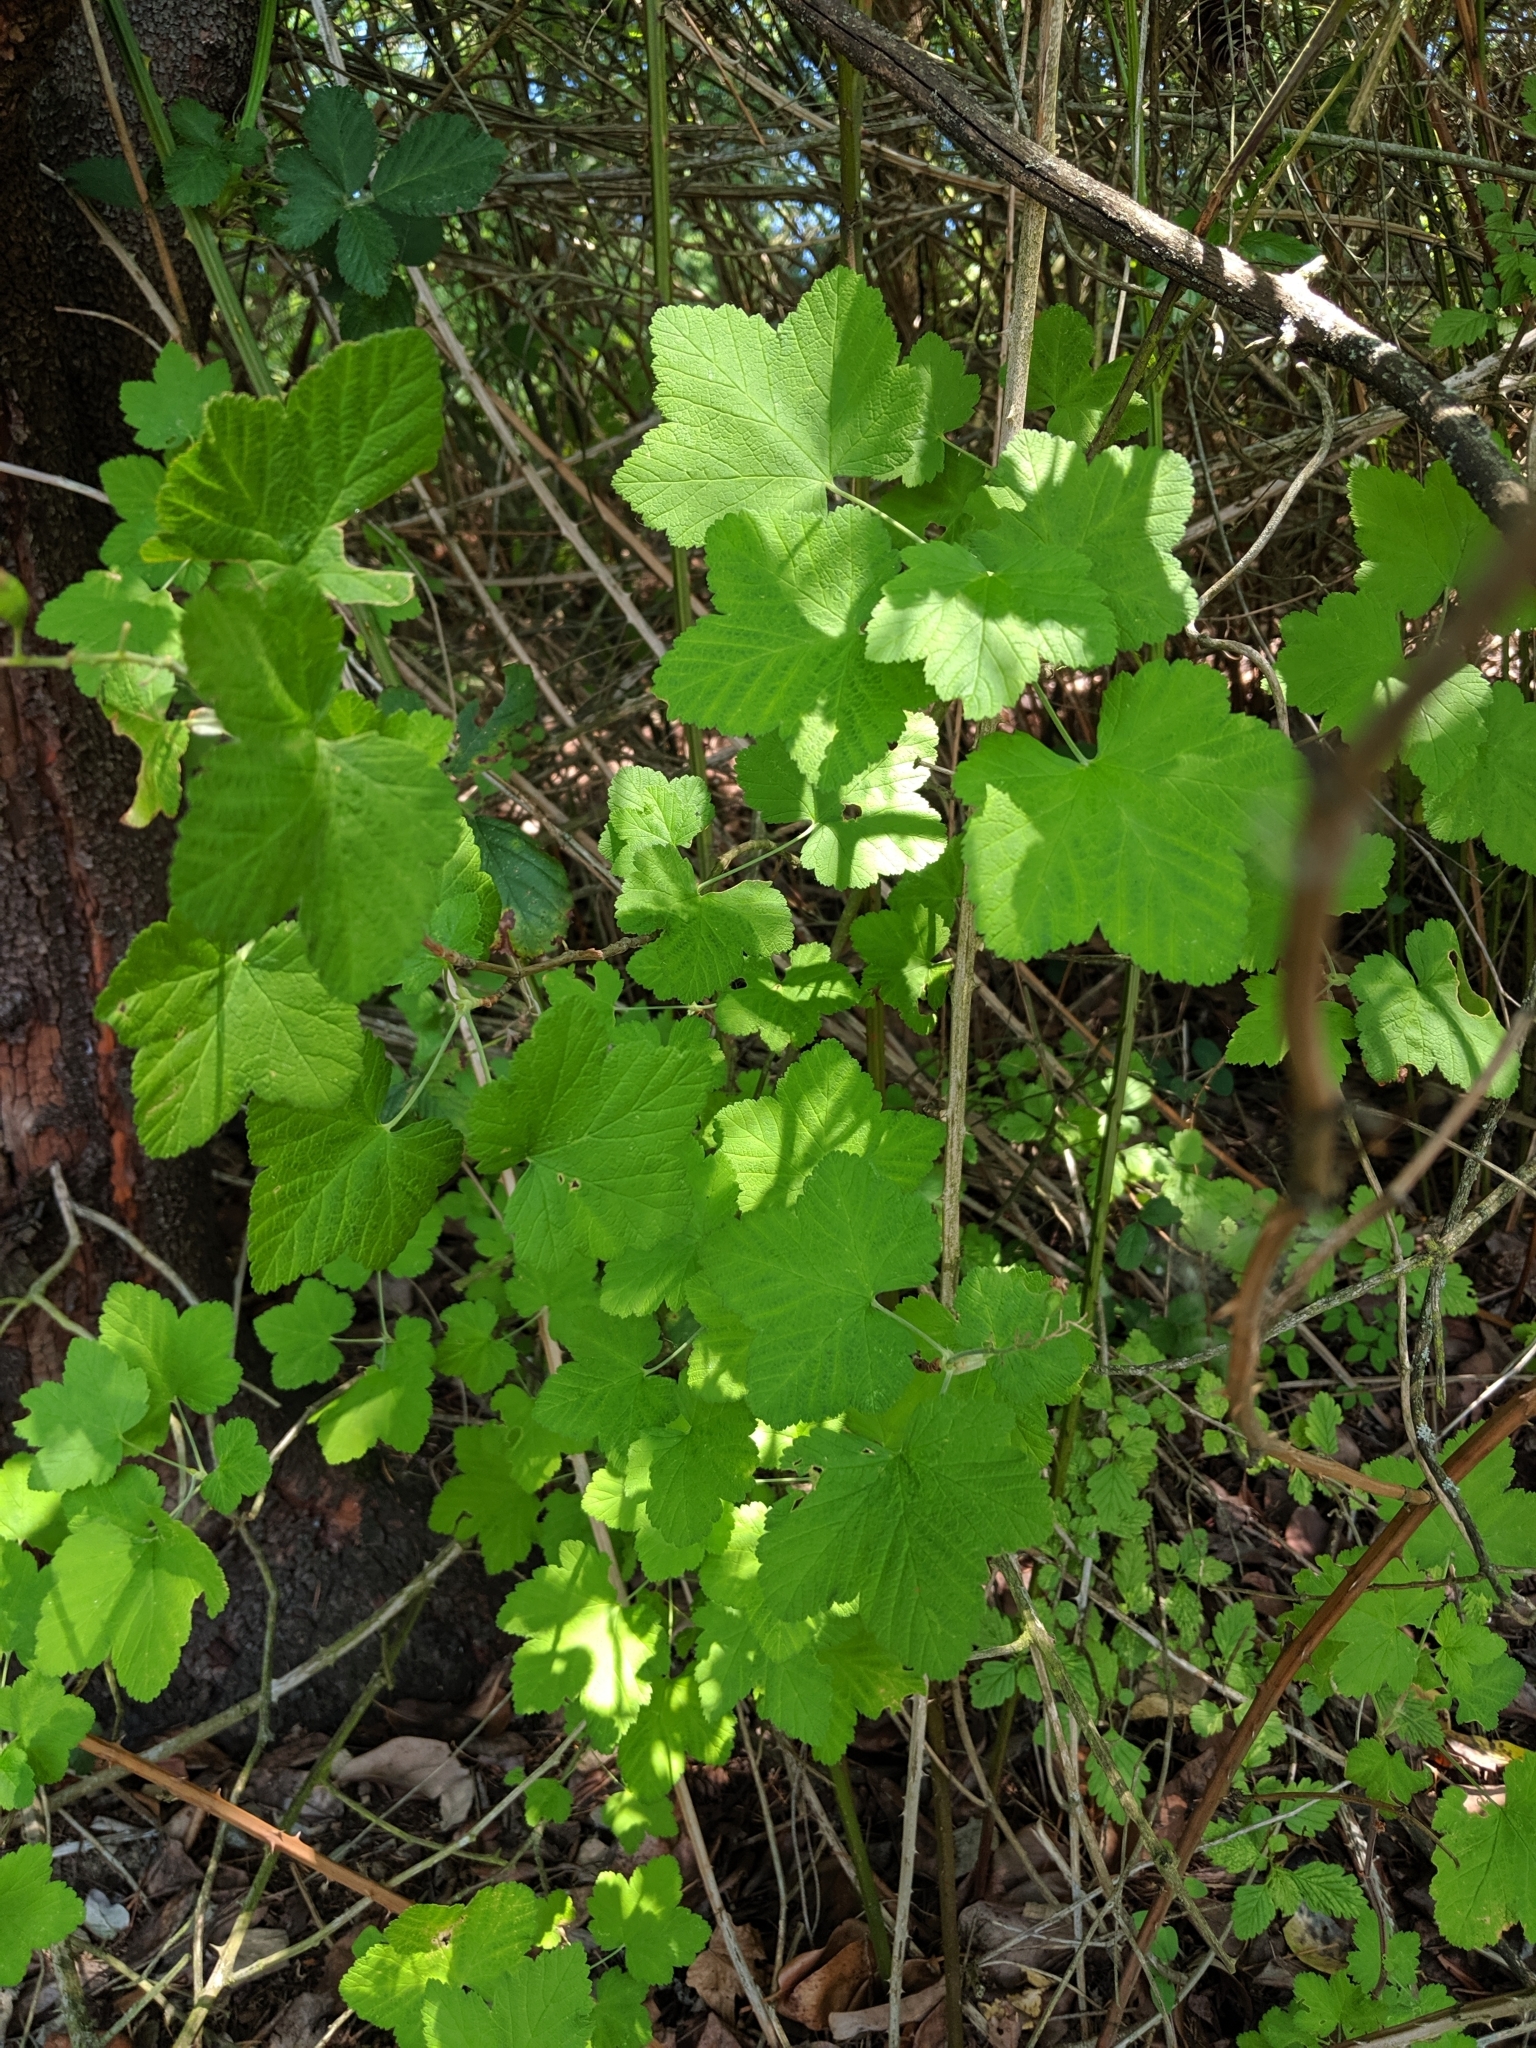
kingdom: Plantae
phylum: Tracheophyta
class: Magnoliopsida
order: Saxifragales
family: Grossulariaceae
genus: Ribes
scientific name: Ribes sanguineum
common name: Flowering currant
